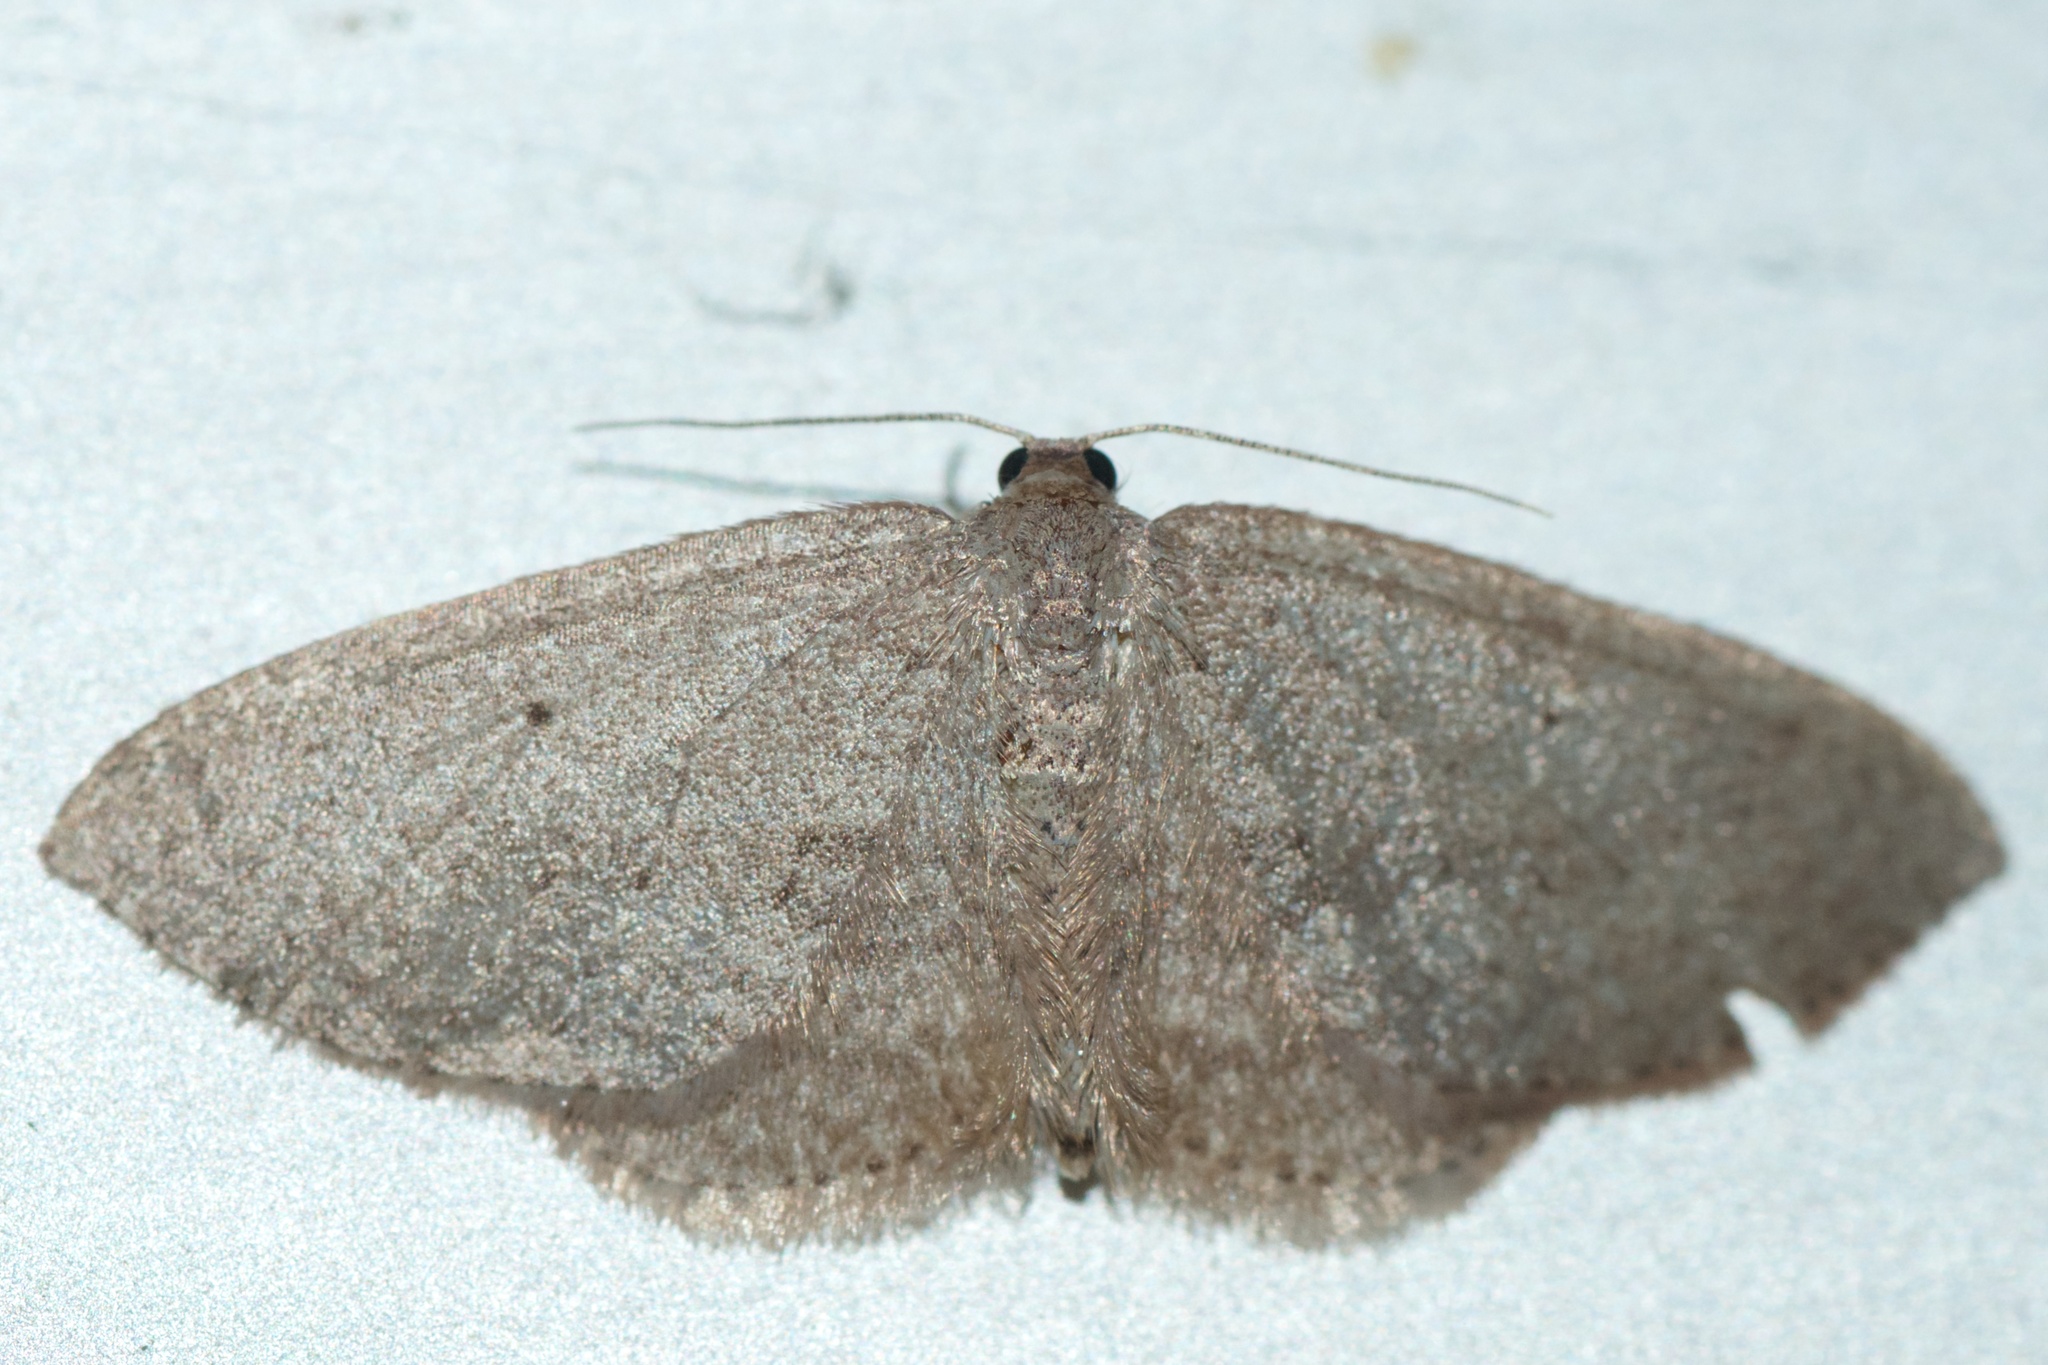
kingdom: Animalia
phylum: Arthropoda
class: Insecta
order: Lepidoptera
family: Geometridae
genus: Poecilasthena
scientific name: Poecilasthena schistaria
